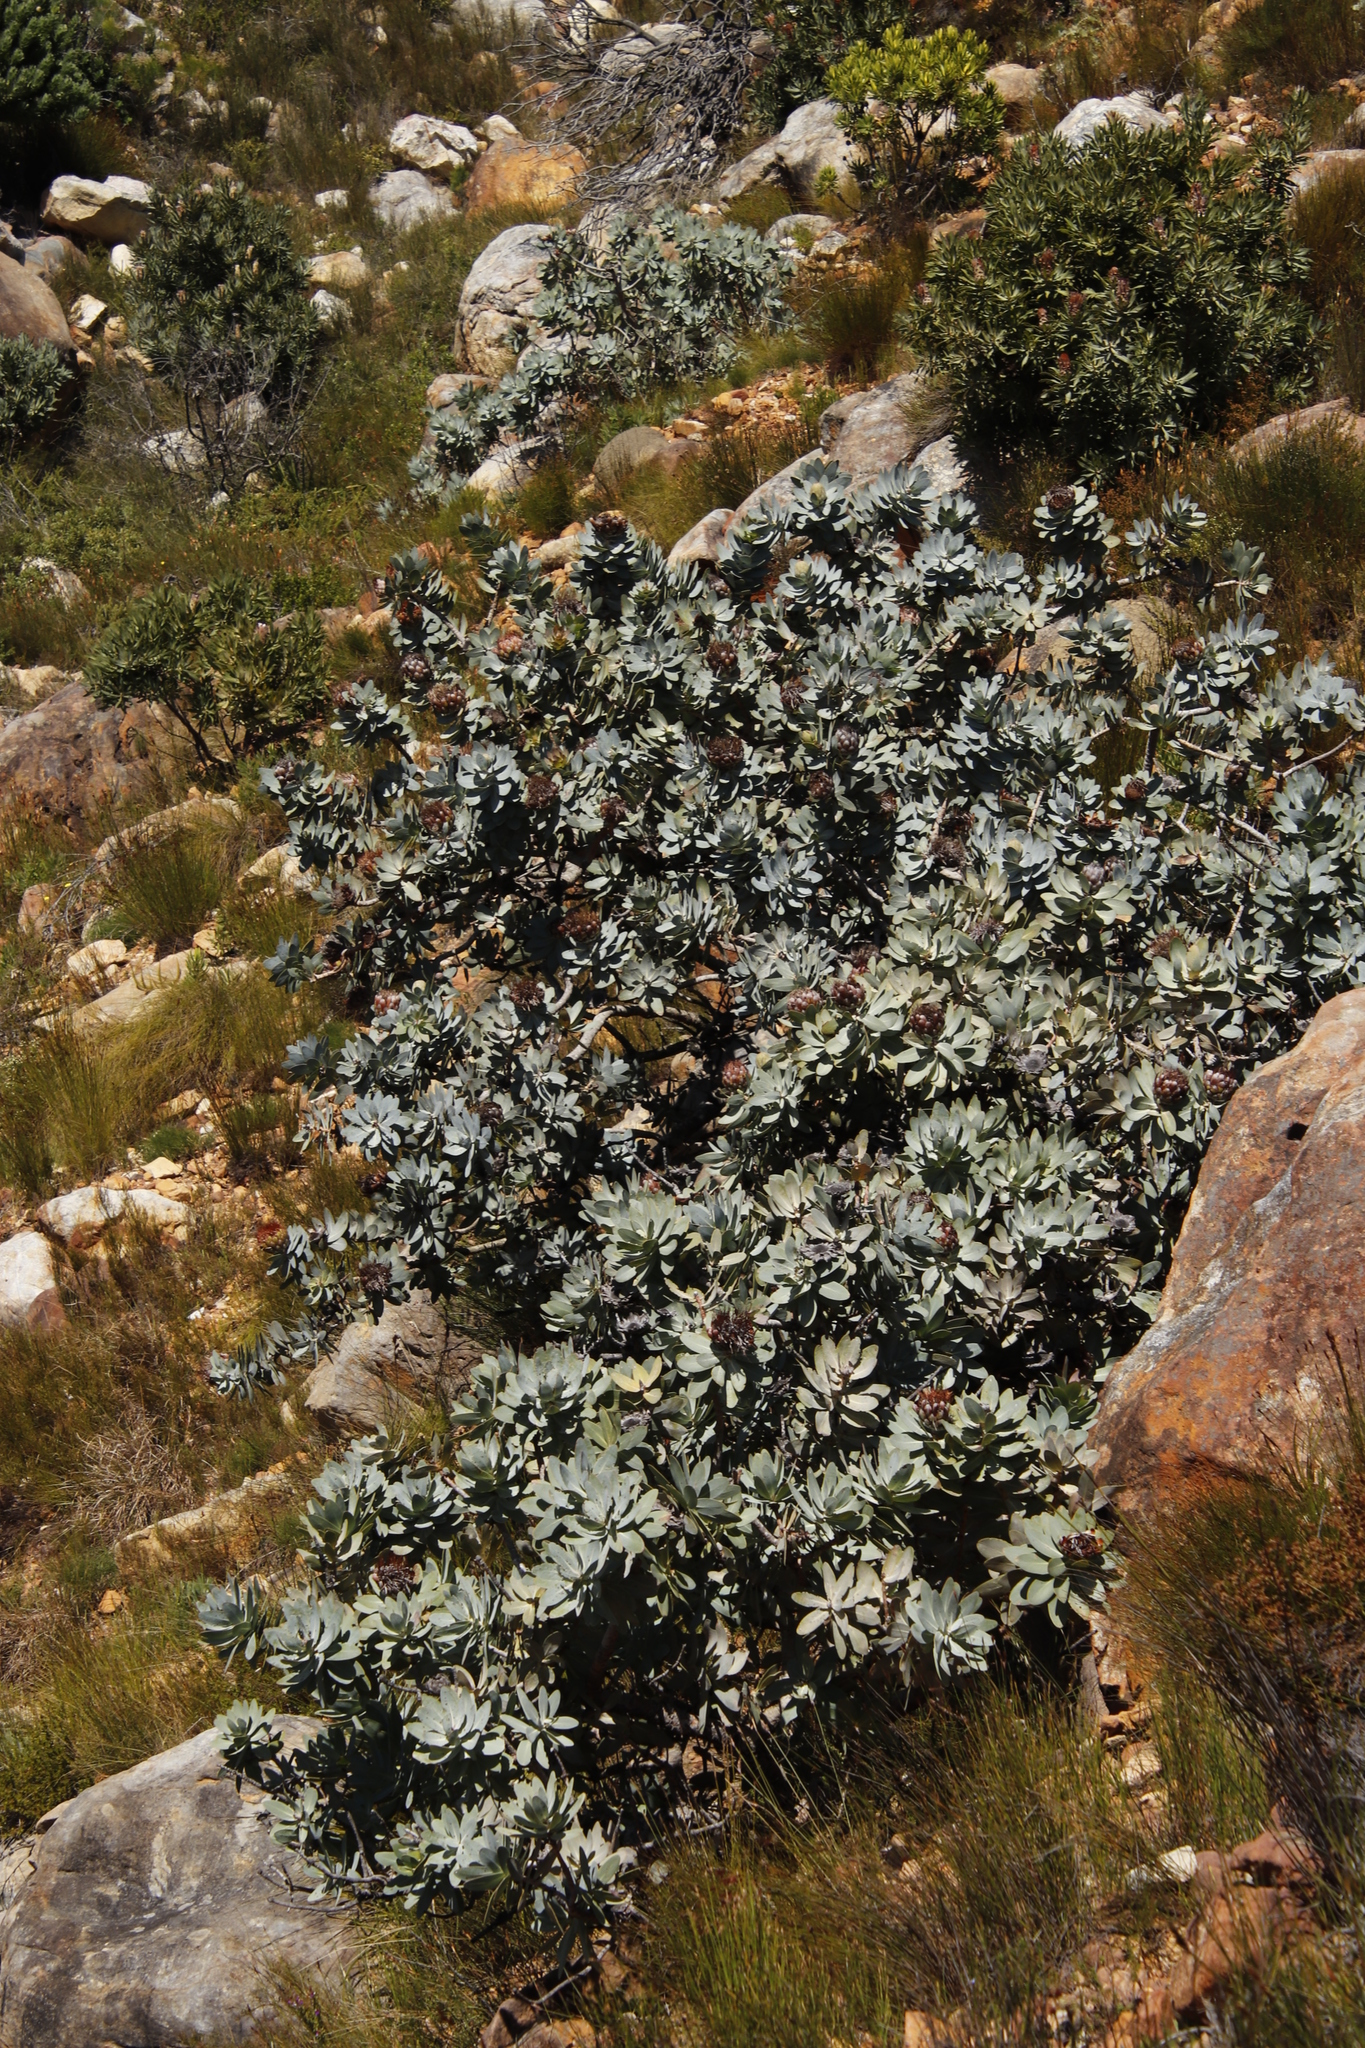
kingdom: Plantae
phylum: Tracheophyta
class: Magnoliopsida
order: Proteales
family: Proteaceae
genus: Protea
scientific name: Protea nitida
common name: Tree protea
